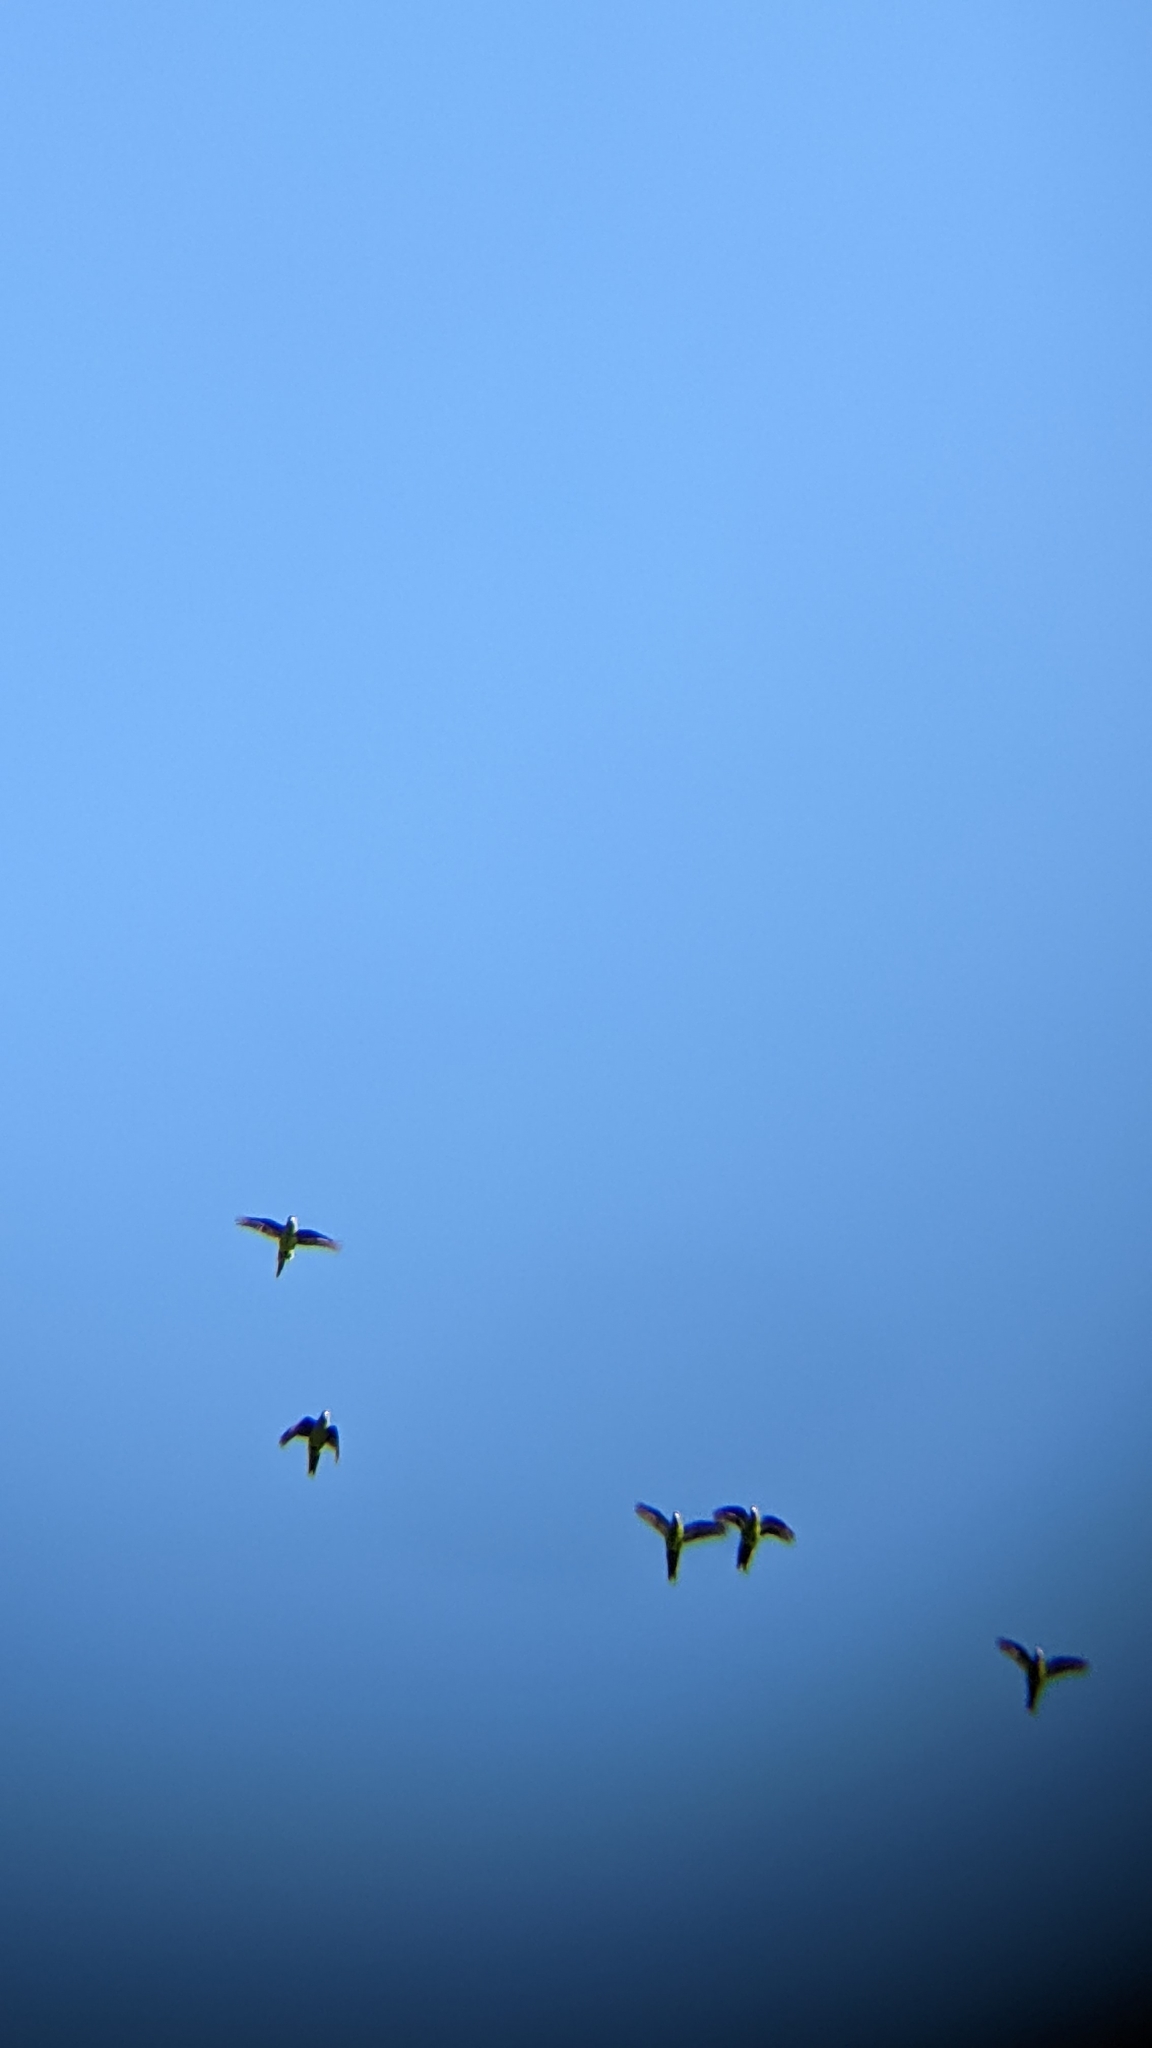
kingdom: Animalia
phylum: Chordata
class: Aves
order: Psittaciformes
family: Psittacidae
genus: Cyanoramphus
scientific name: Cyanoramphus novaezelandiae
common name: Red-fronted parakeet
